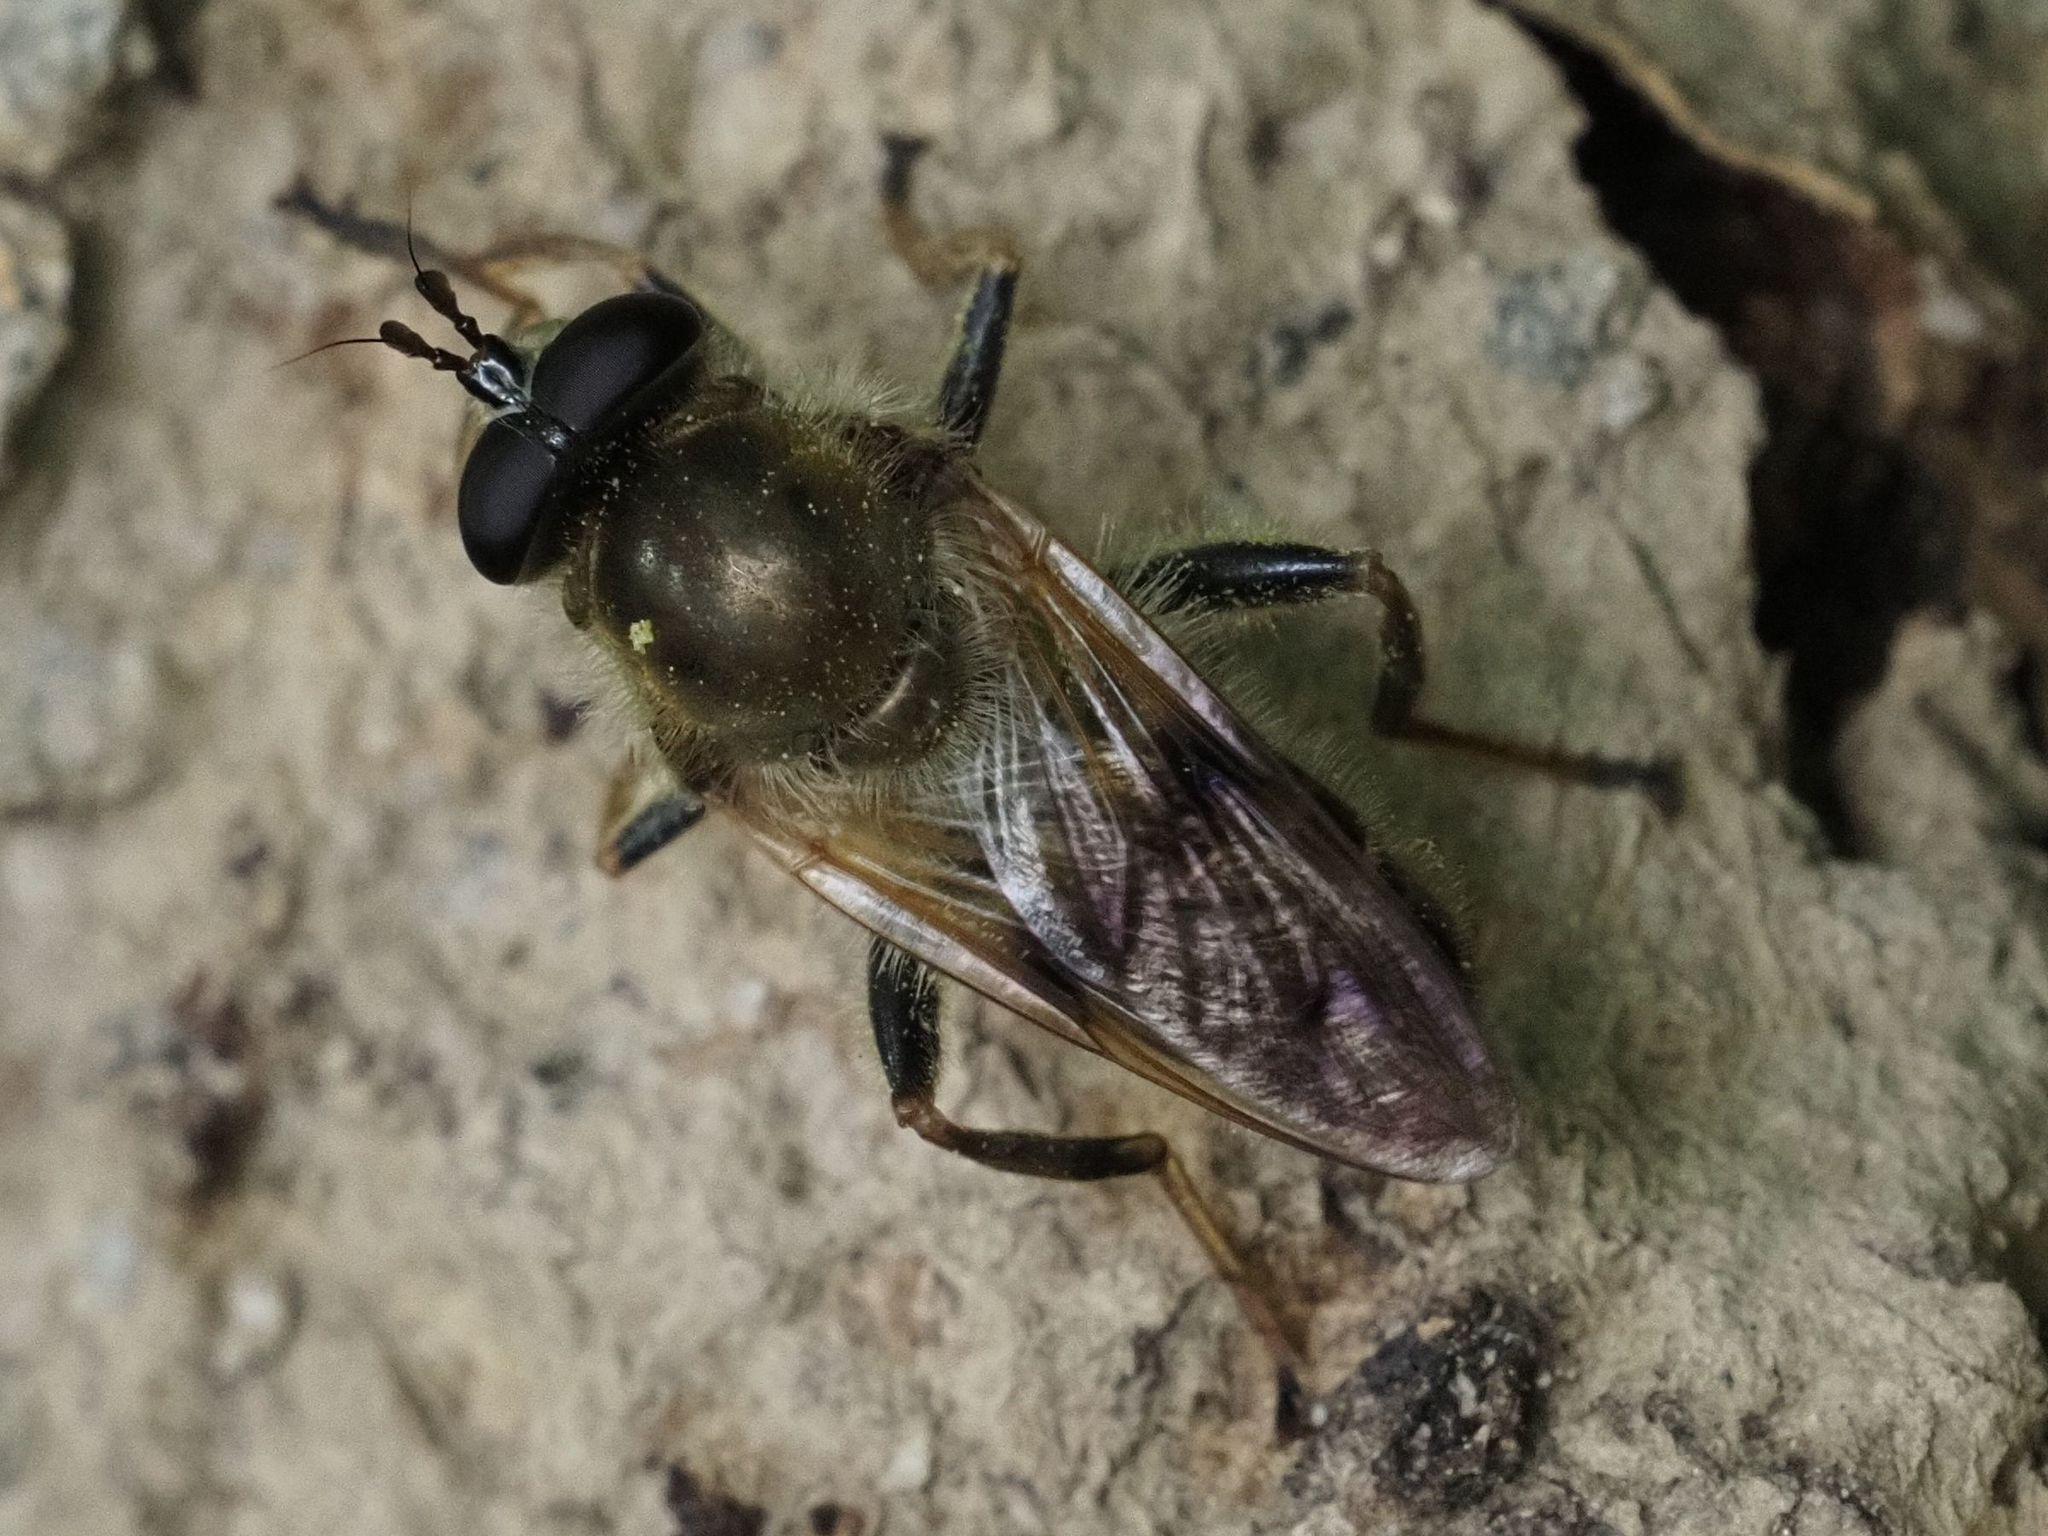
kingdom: Animalia
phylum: Arthropoda
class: Insecta
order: Diptera
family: Syrphidae
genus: Criorhina
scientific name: Criorhina asilica
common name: Pale-banded bear hoverfly
